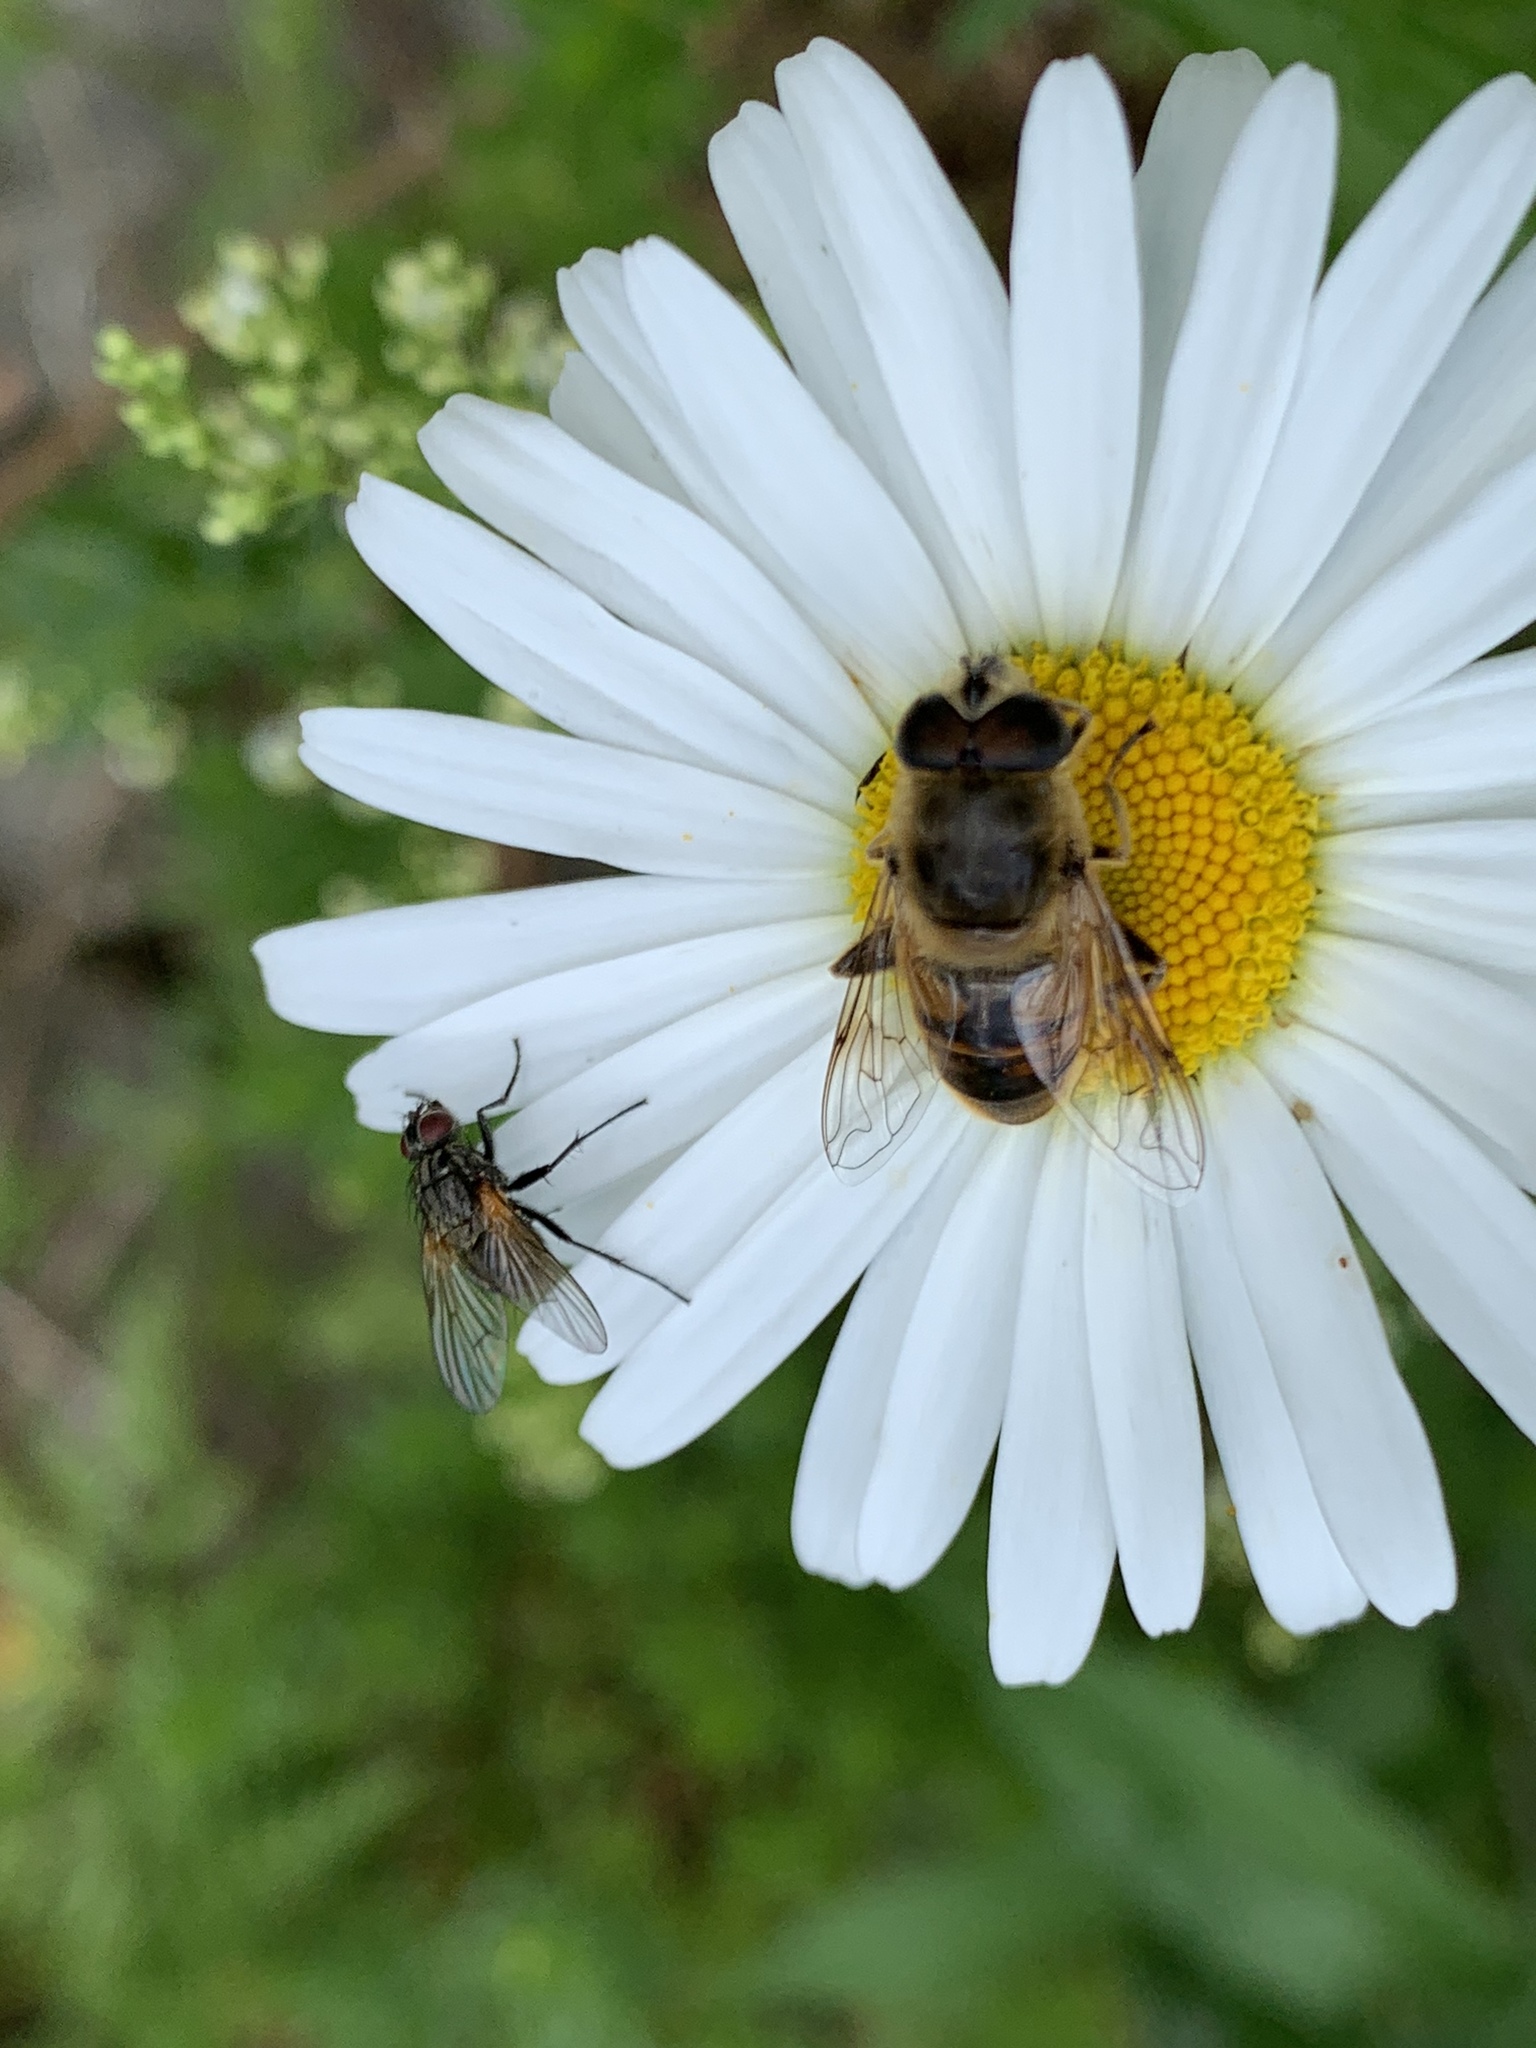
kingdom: Animalia
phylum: Arthropoda
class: Insecta
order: Diptera
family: Syrphidae
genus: Eristalis
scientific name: Eristalis tenax
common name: Drone fly
